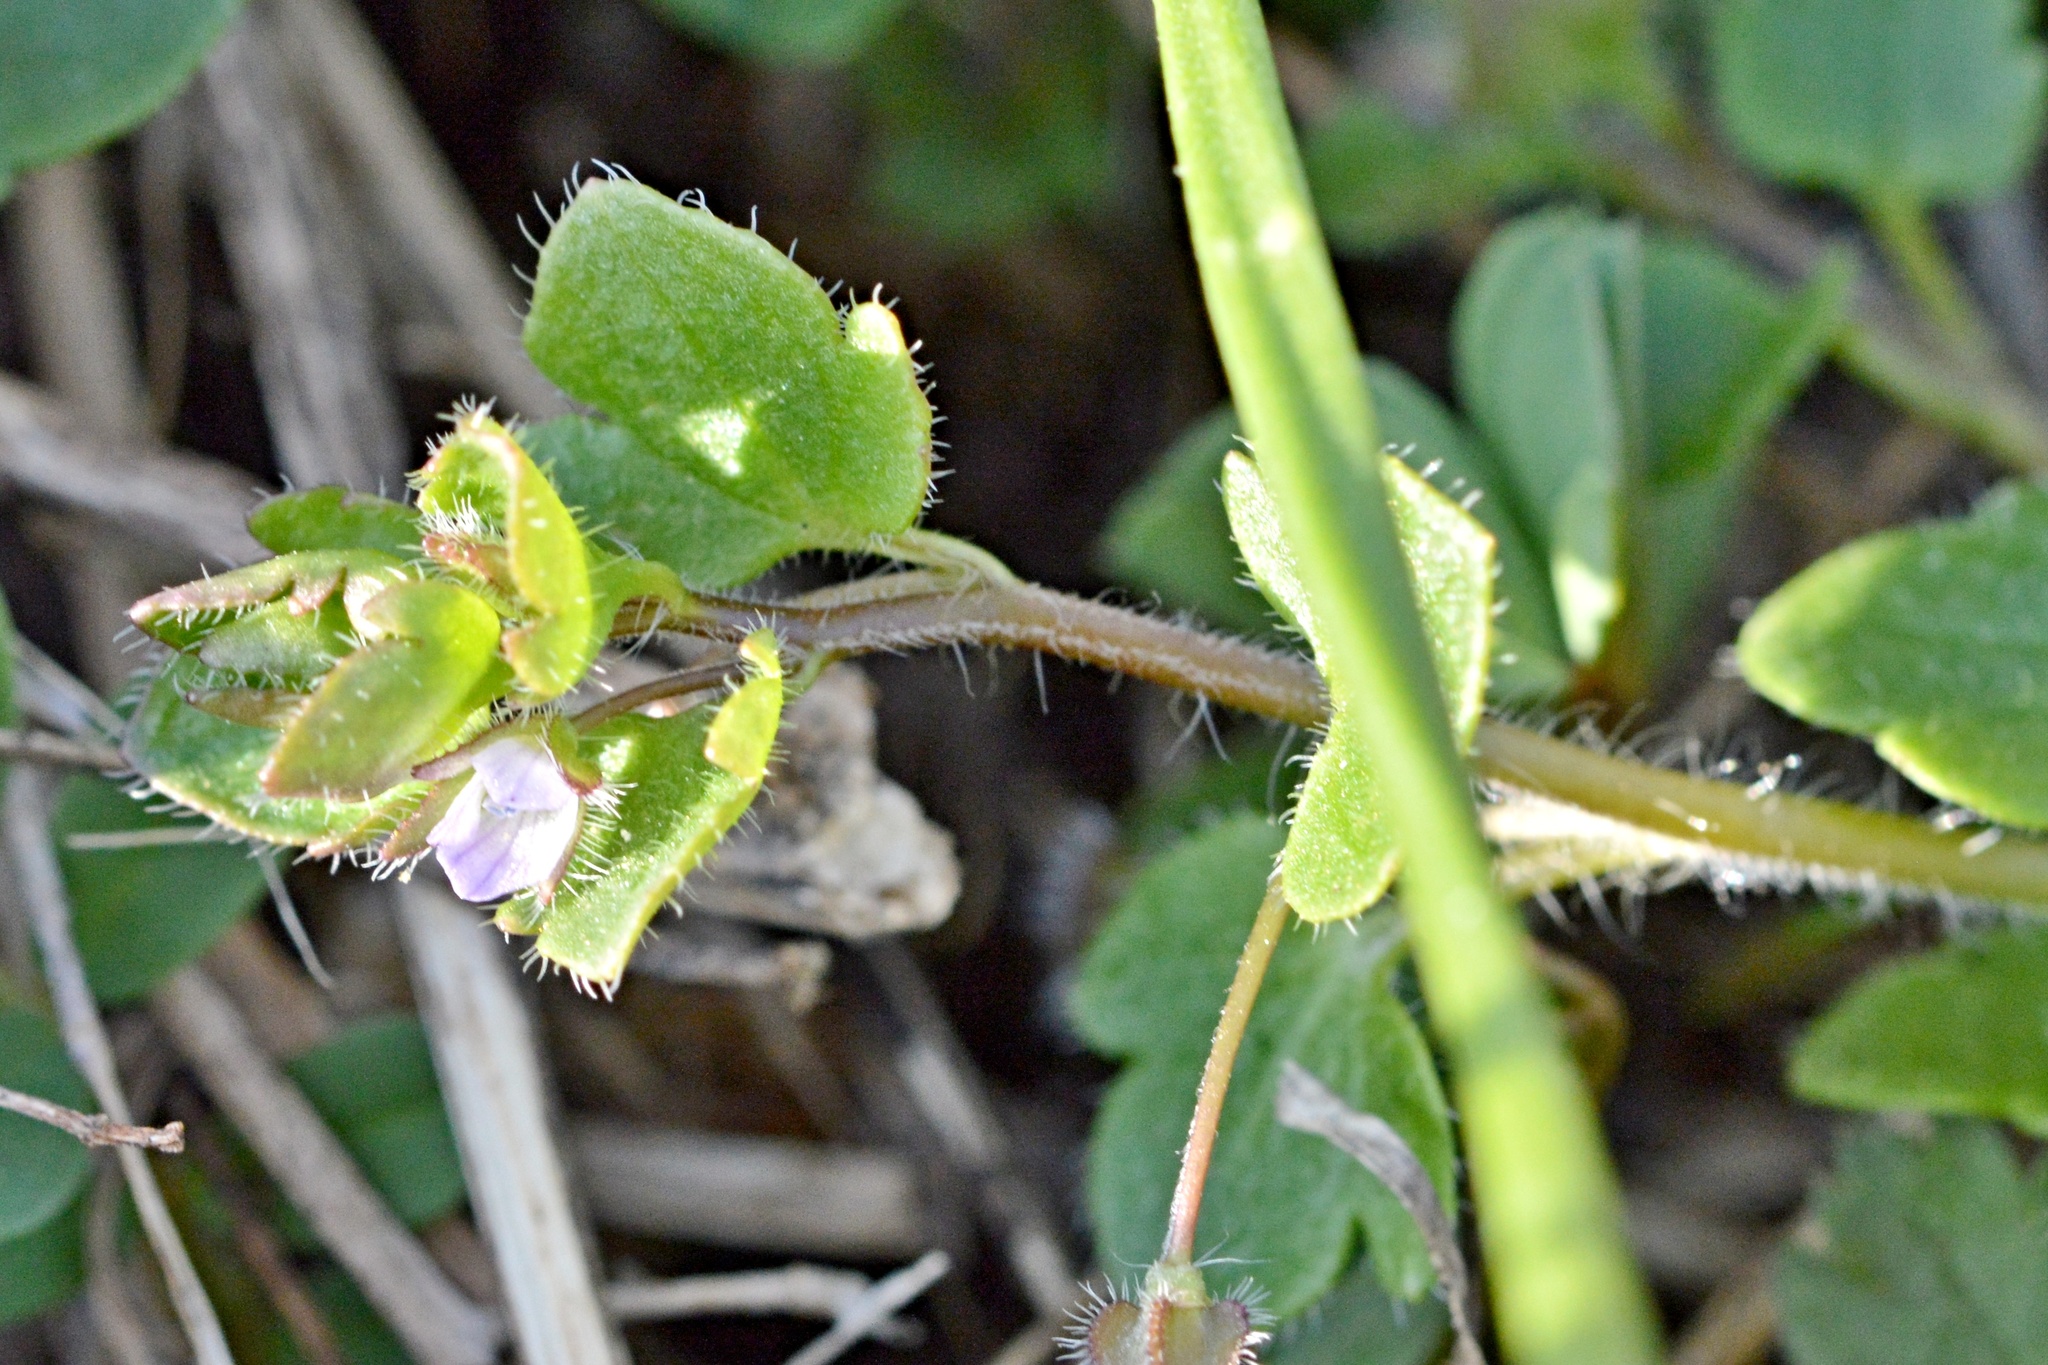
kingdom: Plantae
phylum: Tracheophyta
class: Magnoliopsida
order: Lamiales
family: Plantaginaceae
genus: Veronica
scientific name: Veronica sublobata
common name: False ivy-leaved speedwell
